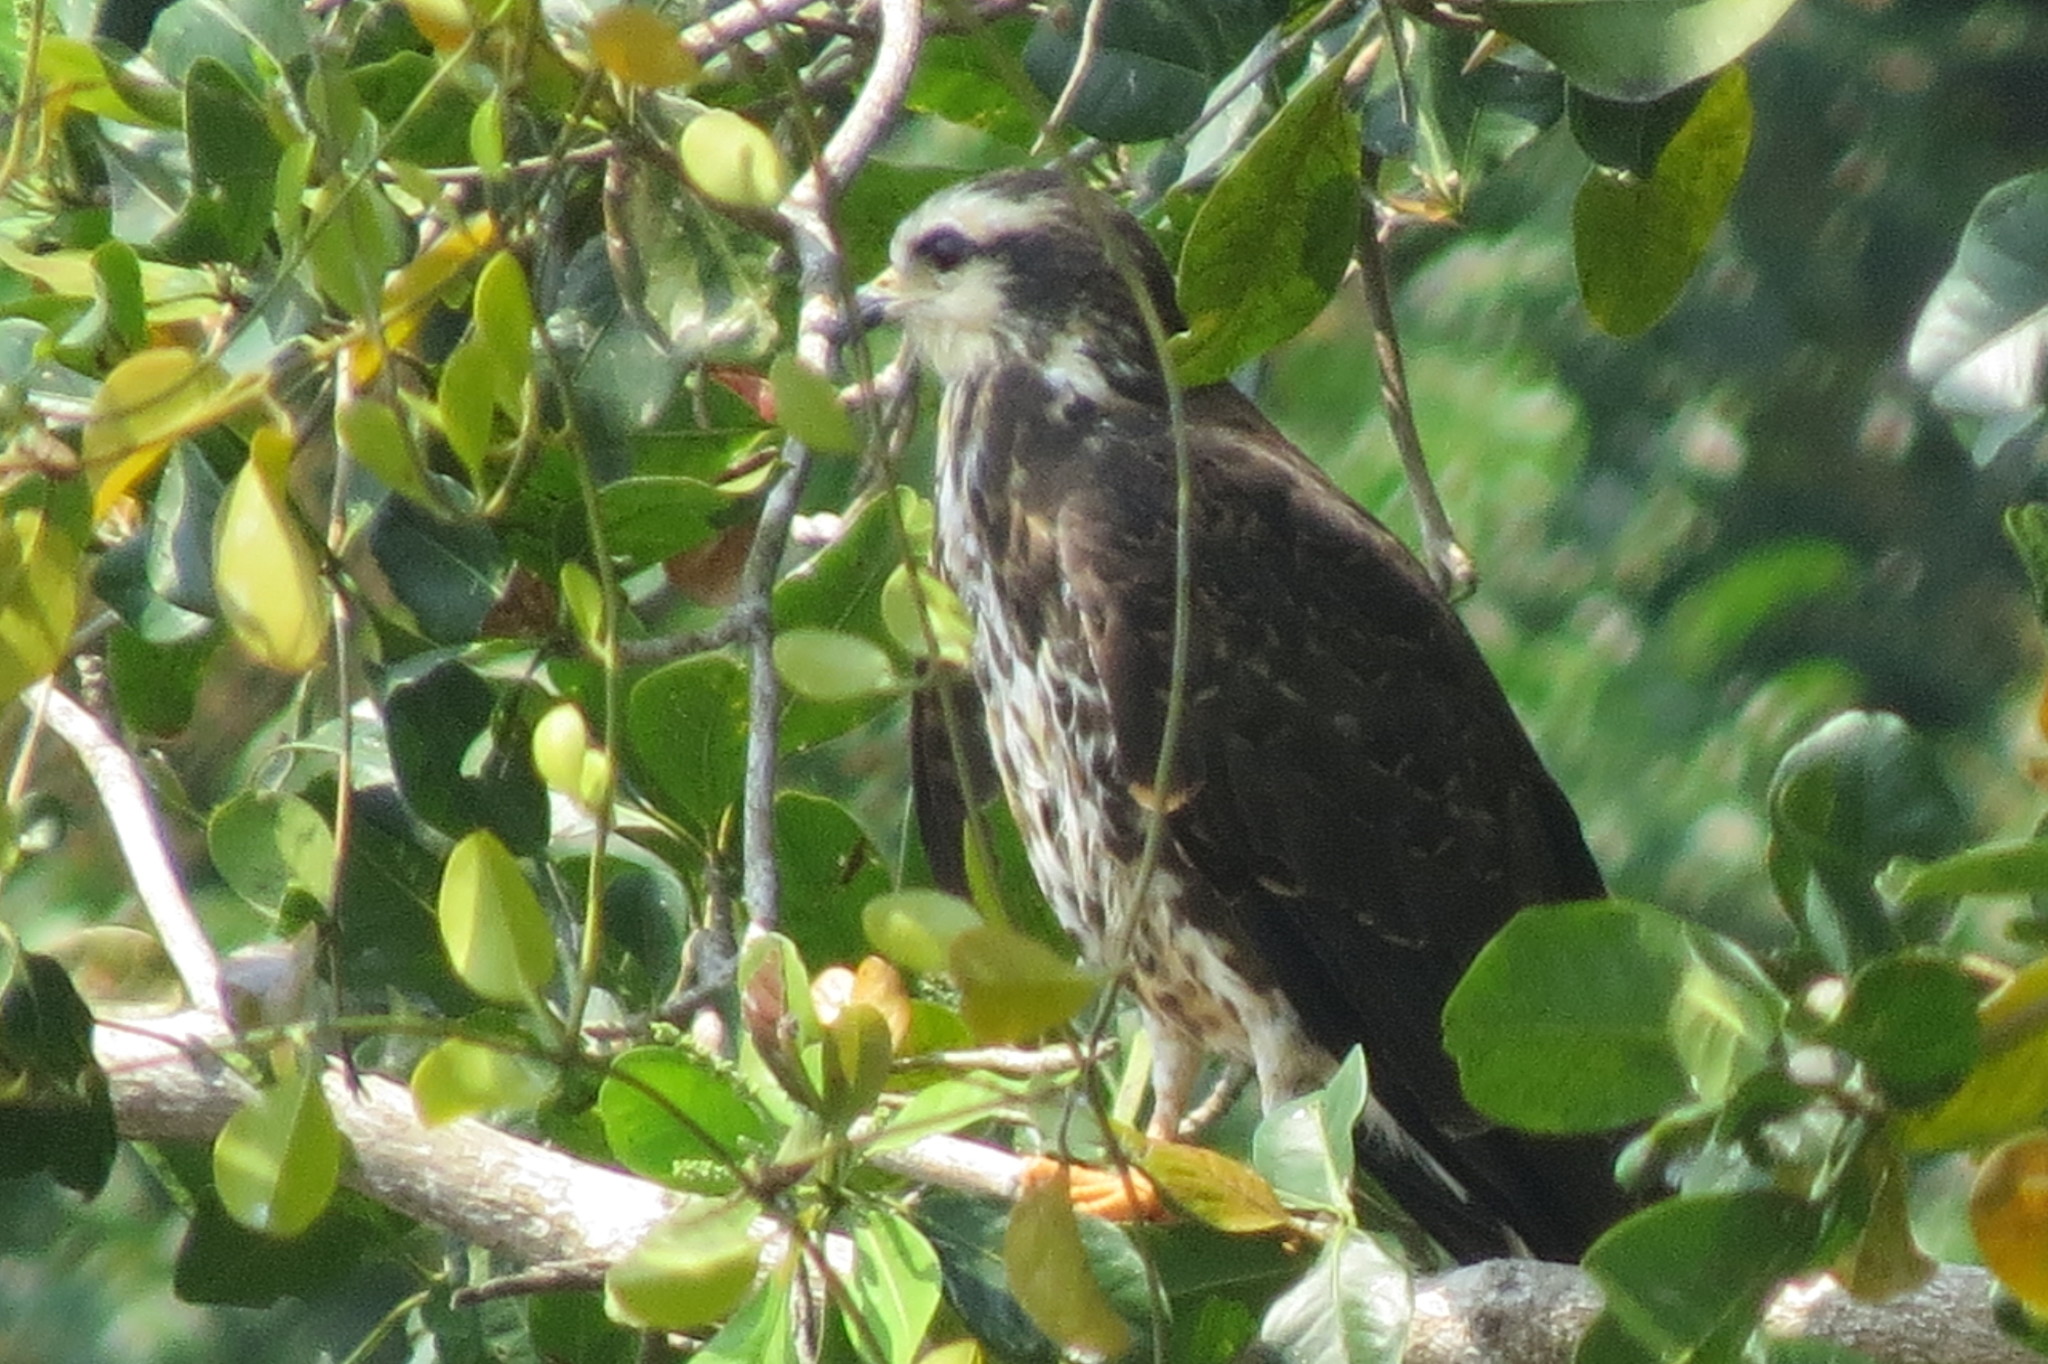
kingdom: Animalia
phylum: Chordata
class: Aves
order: Accipitriformes
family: Accipitridae
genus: Rostrhamus
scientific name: Rostrhamus sociabilis
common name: Snail kite
